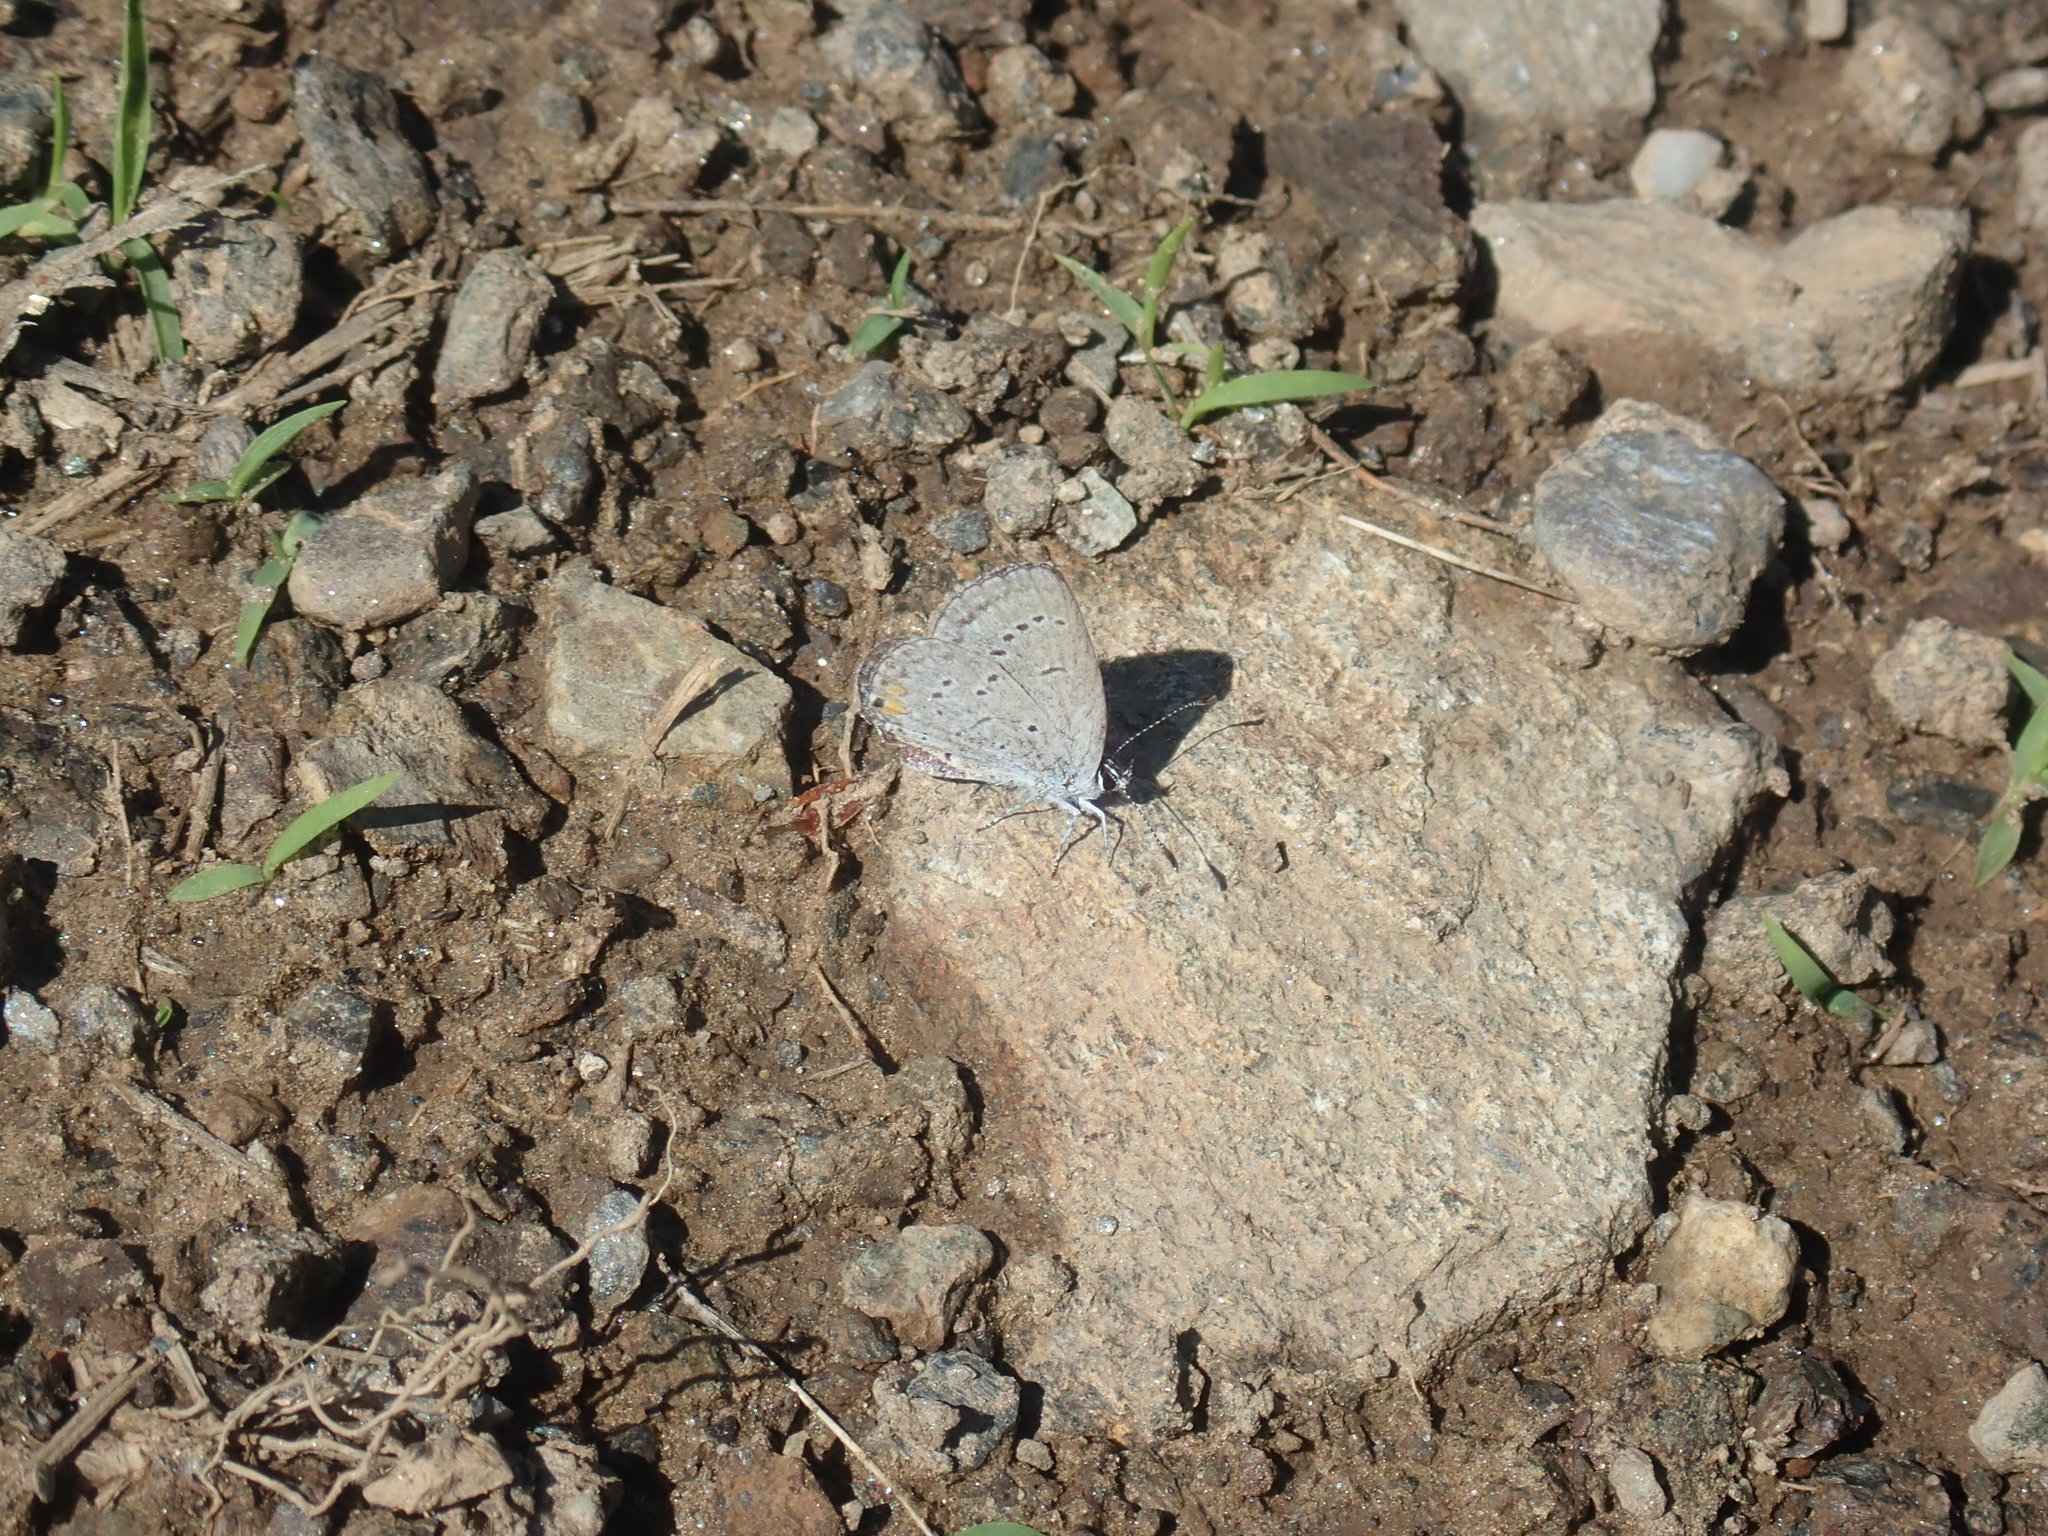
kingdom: Animalia
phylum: Arthropoda
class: Insecta
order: Lepidoptera
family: Lycaenidae
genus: Elkalyce
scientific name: Elkalyce comyntas
